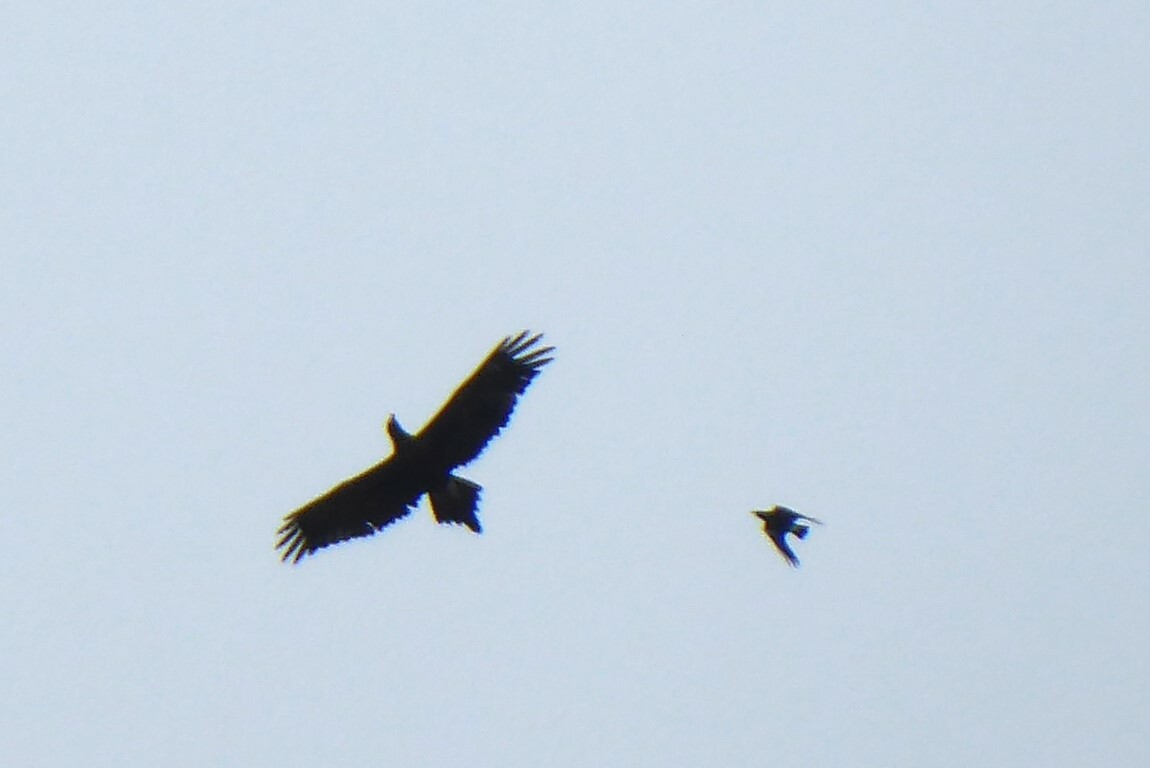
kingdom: Animalia
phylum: Chordata
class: Aves
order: Accipitriformes
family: Accipitridae
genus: Aquila
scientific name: Aquila audax
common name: Wedge-tailed eagle
